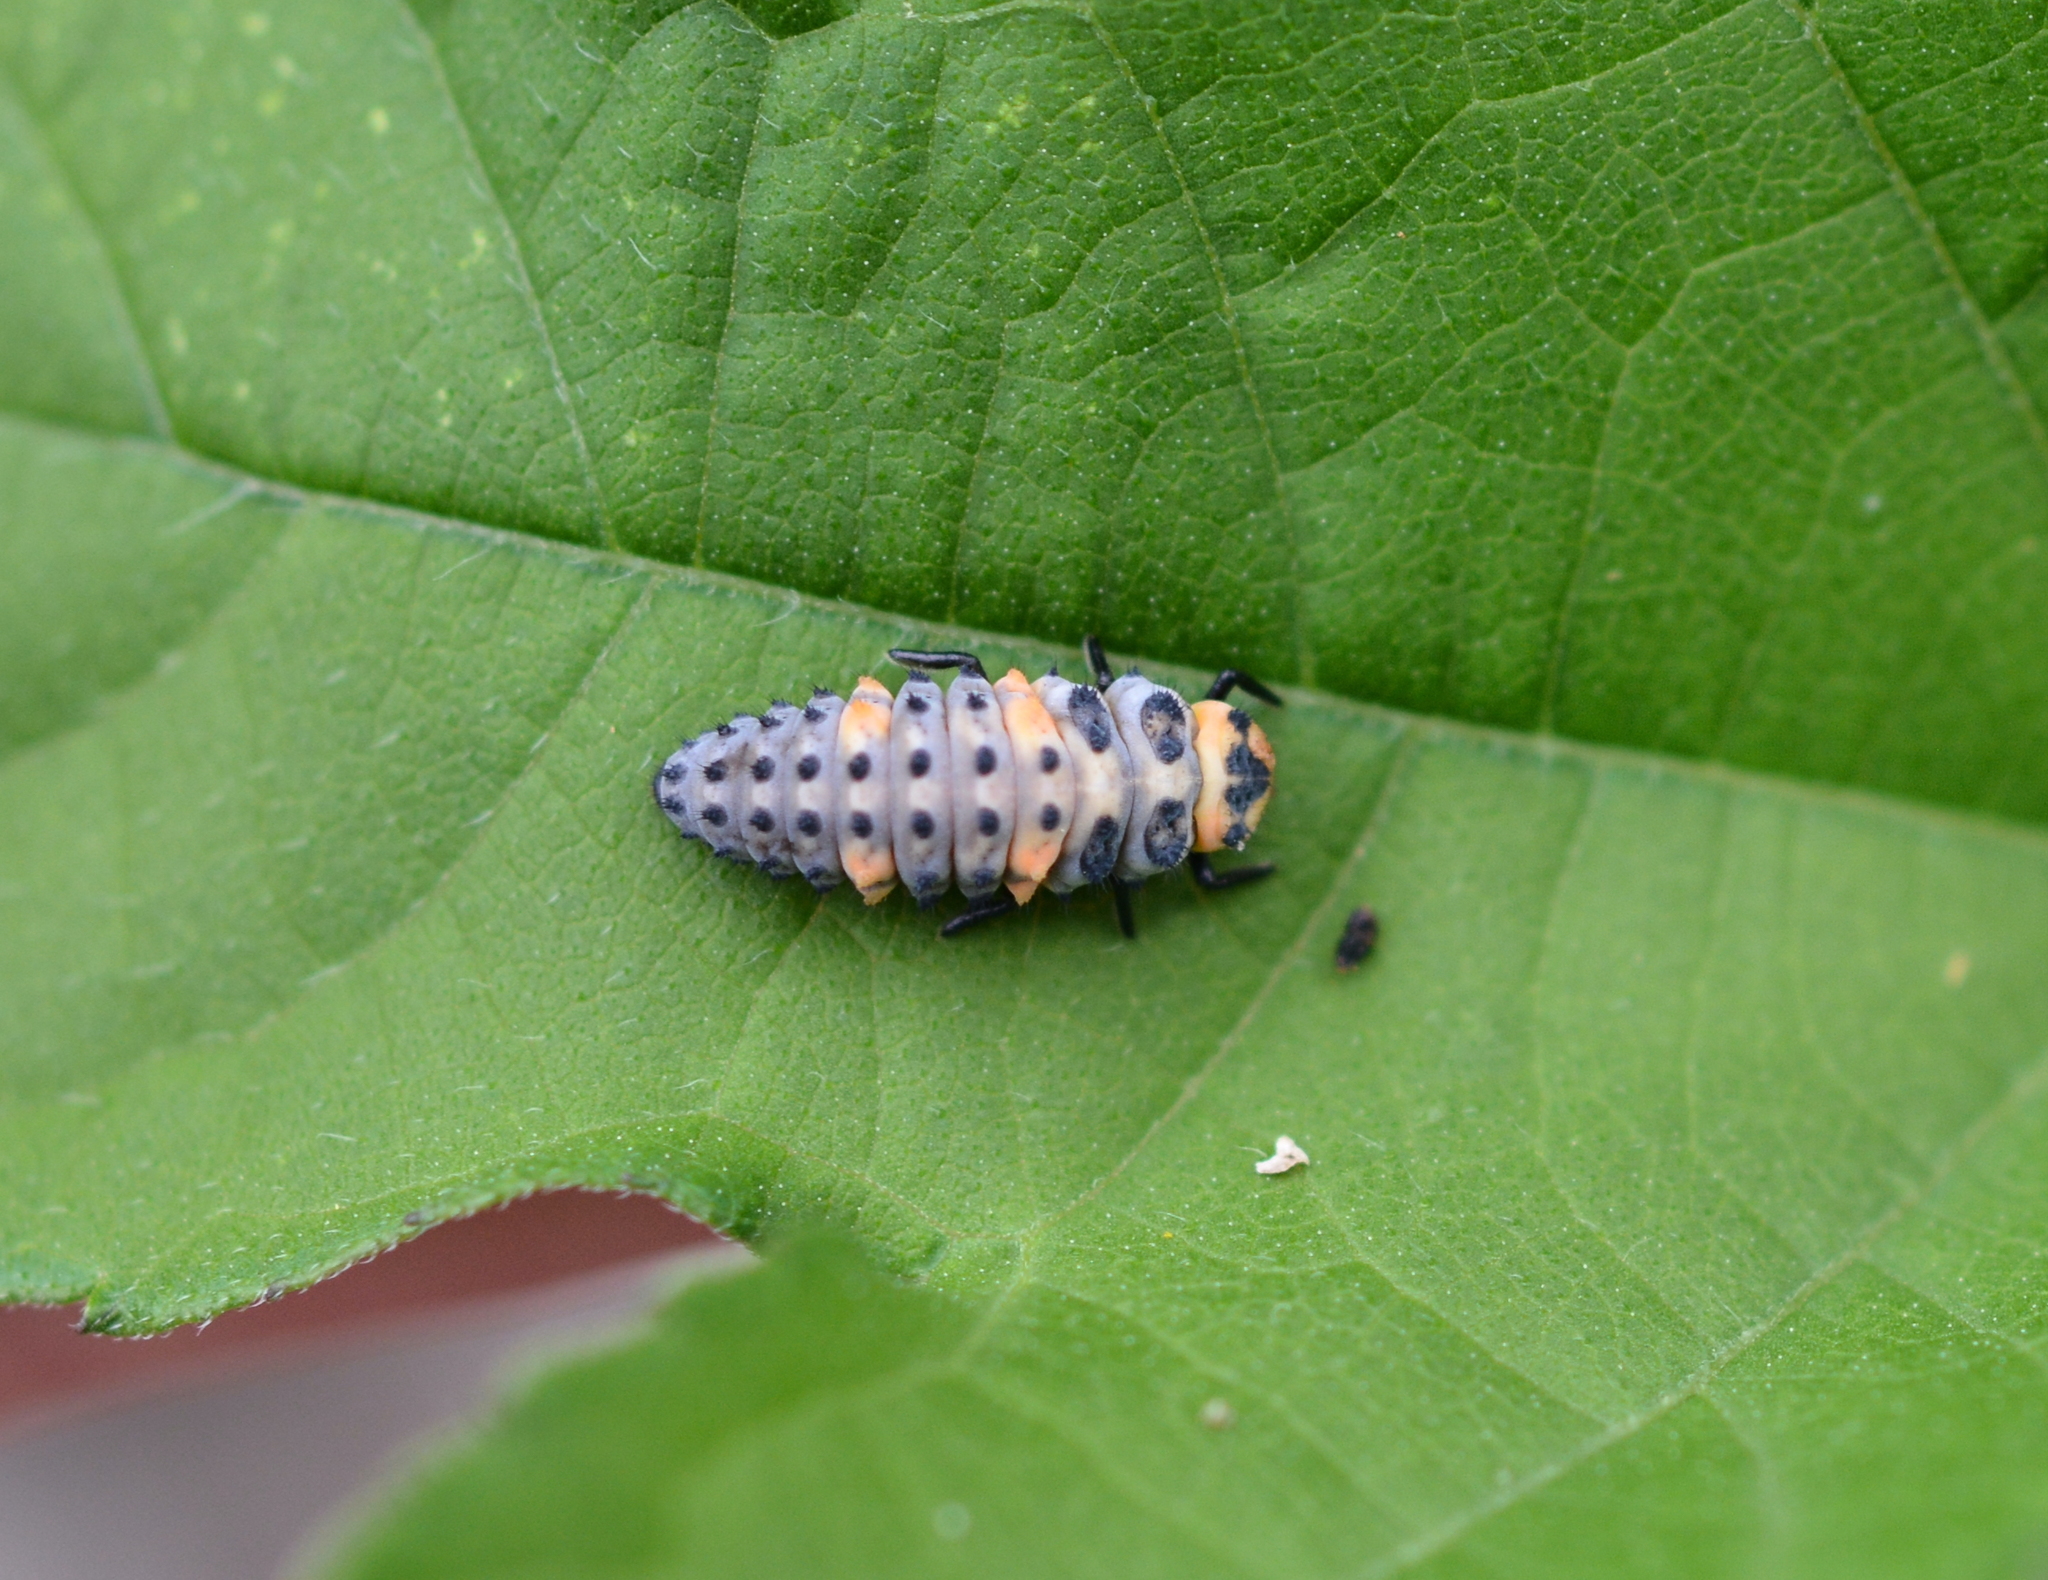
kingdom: Animalia
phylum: Arthropoda
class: Insecta
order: Coleoptera
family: Coccinellidae
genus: Coccinella
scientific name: Coccinella septempunctata
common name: Sevenspotted lady beetle
